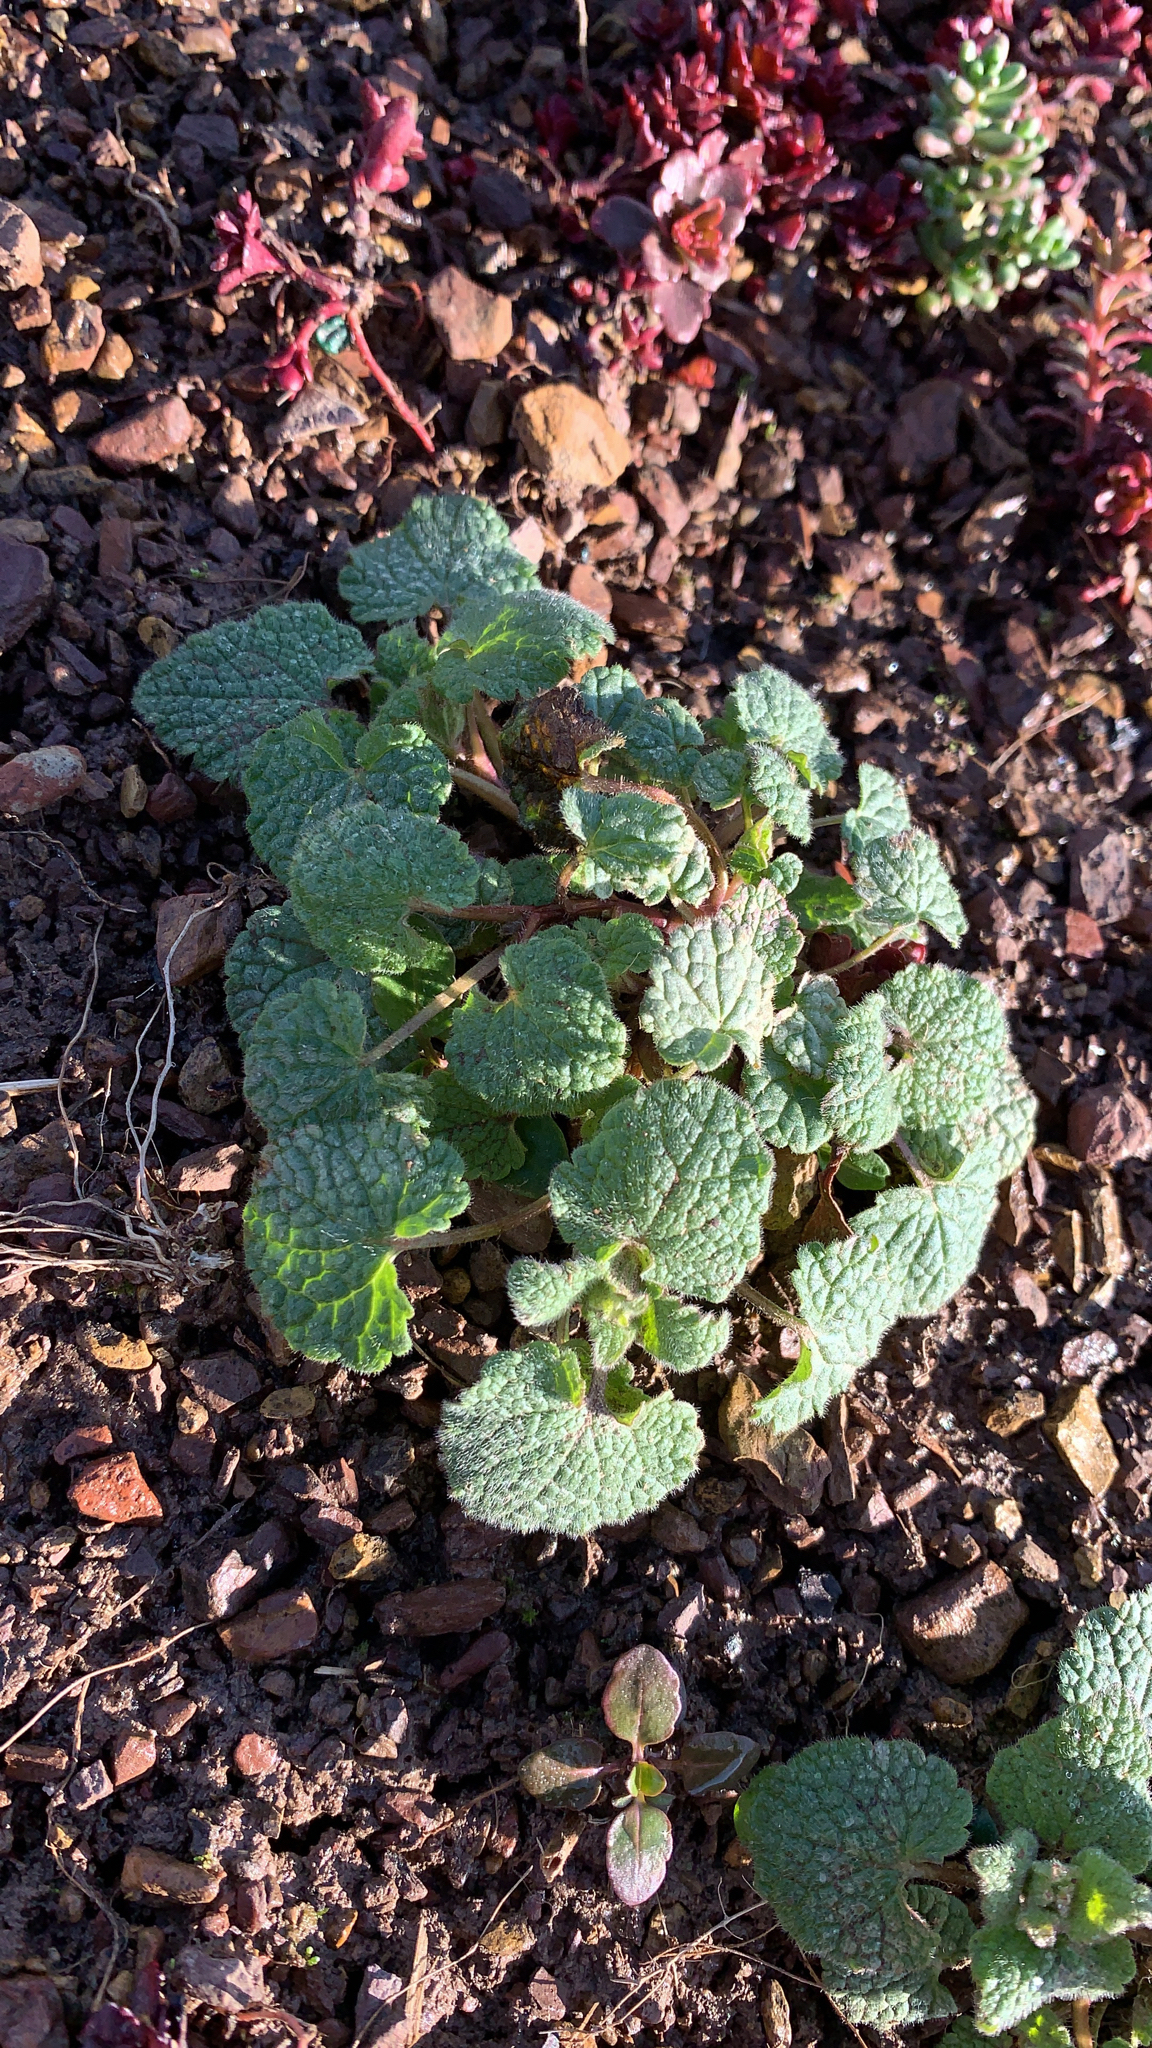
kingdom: Plantae
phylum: Tracheophyta
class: Magnoliopsida
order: Lamiales
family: Lamiaceae
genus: Lamium
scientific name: Lamium purpureum
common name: Red dead-nettle
